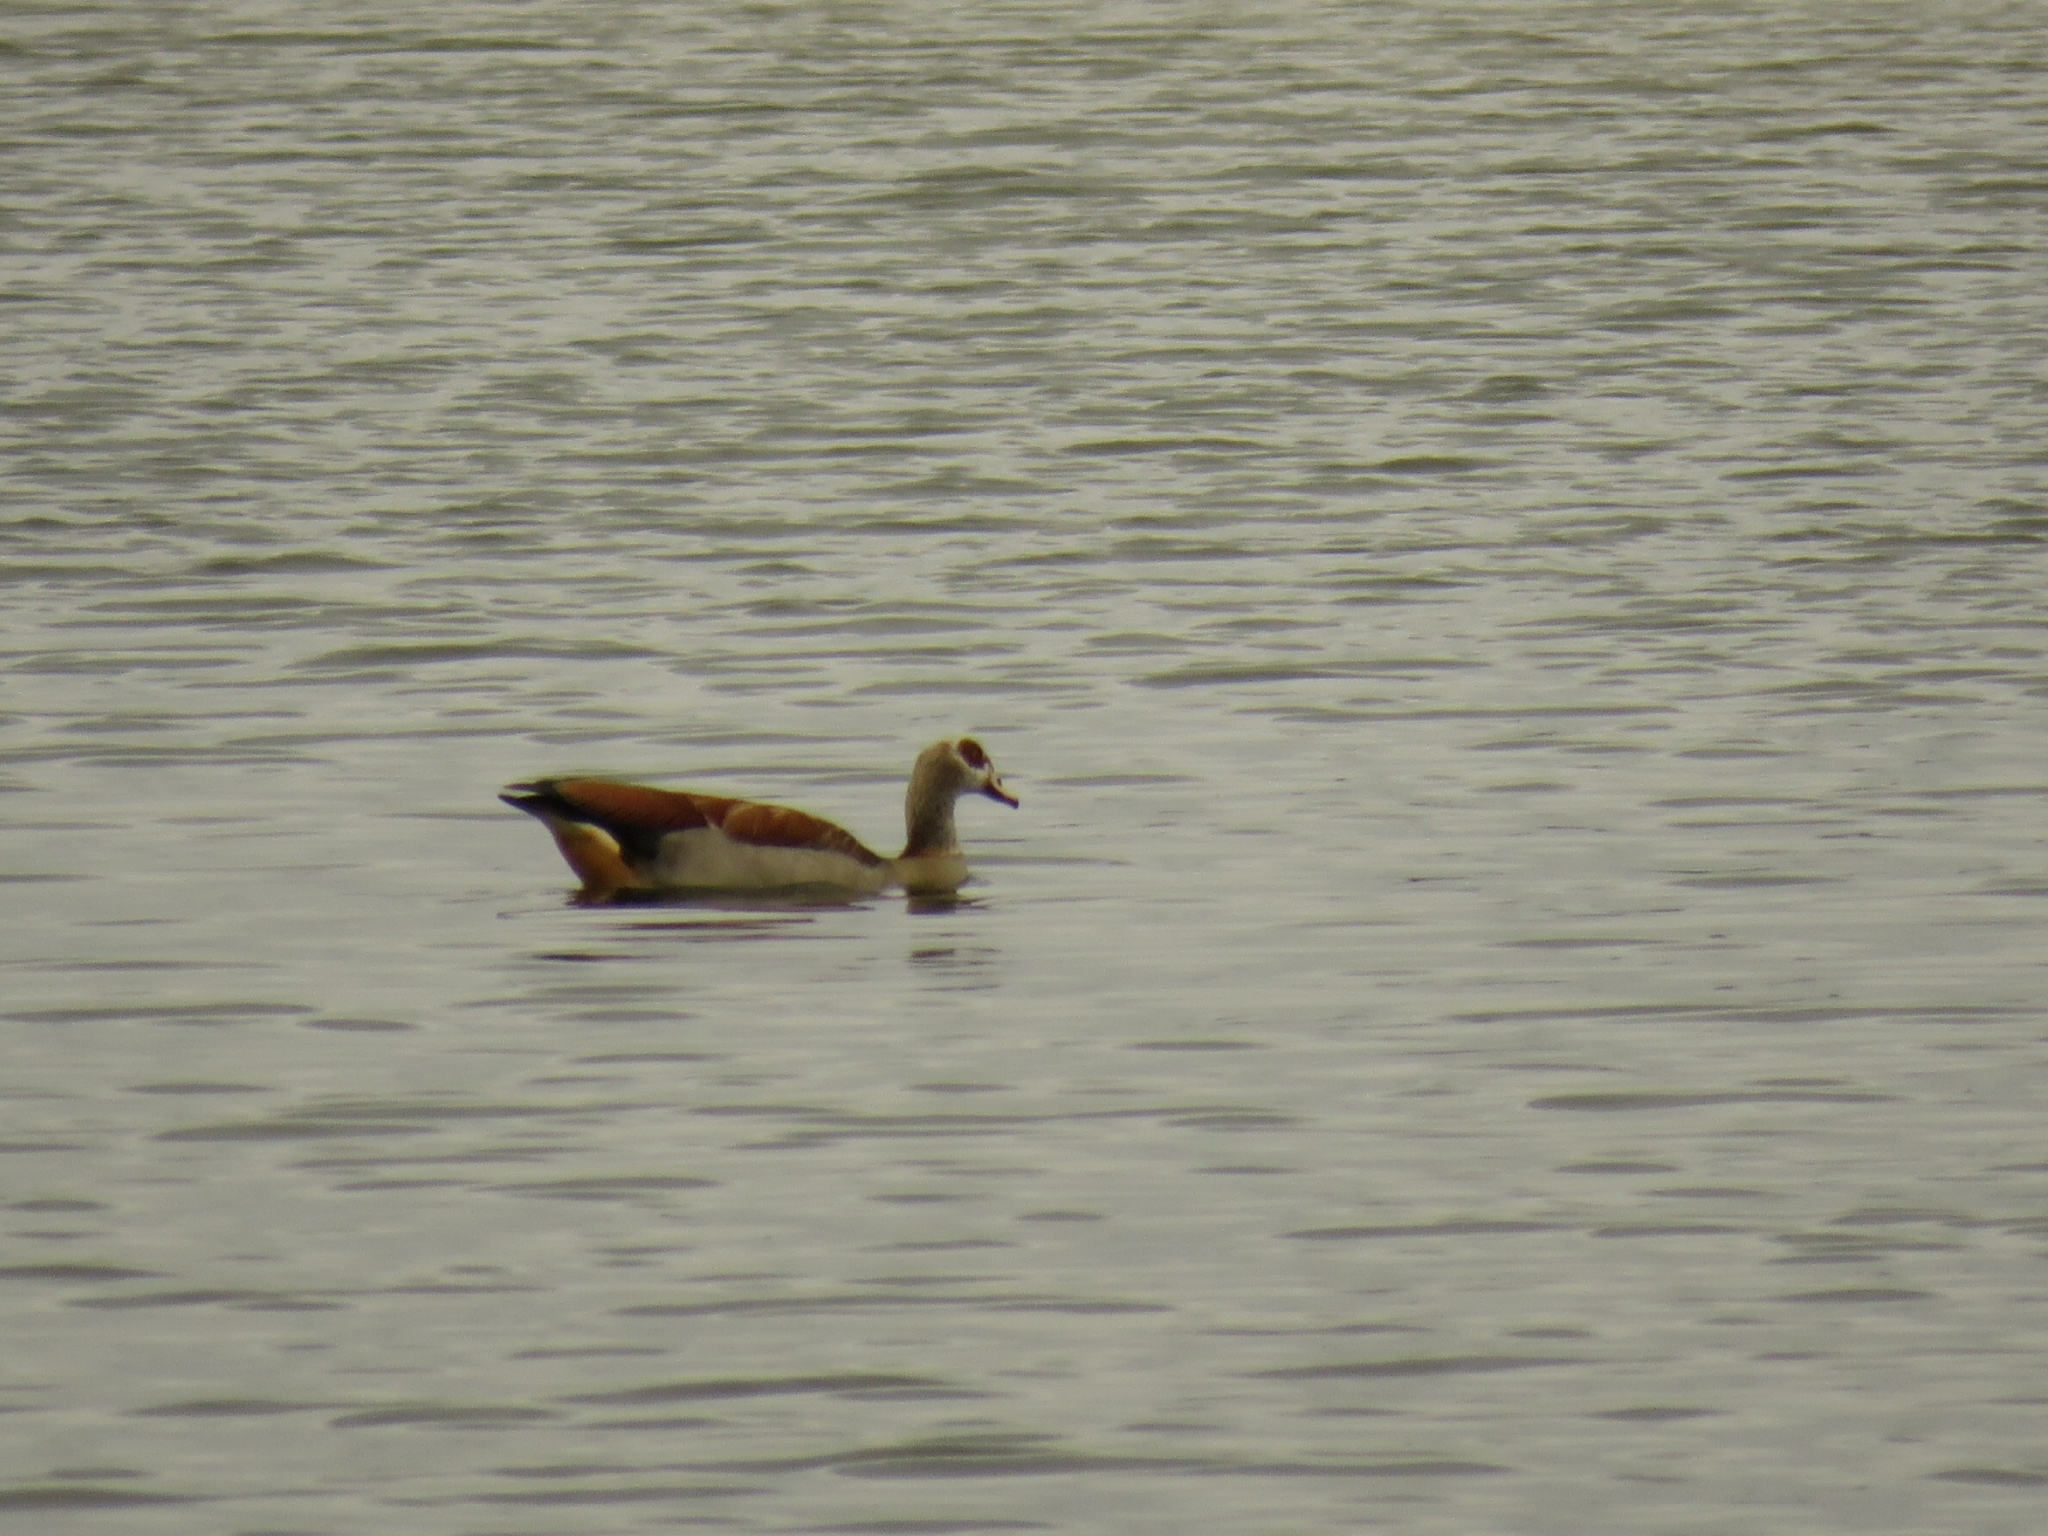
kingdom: Animalia
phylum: Chordata
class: Aves
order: Anseriformes
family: Anatidae
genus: Alopochen
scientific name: Alopochen aegyptiaca
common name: Egyptian goose
